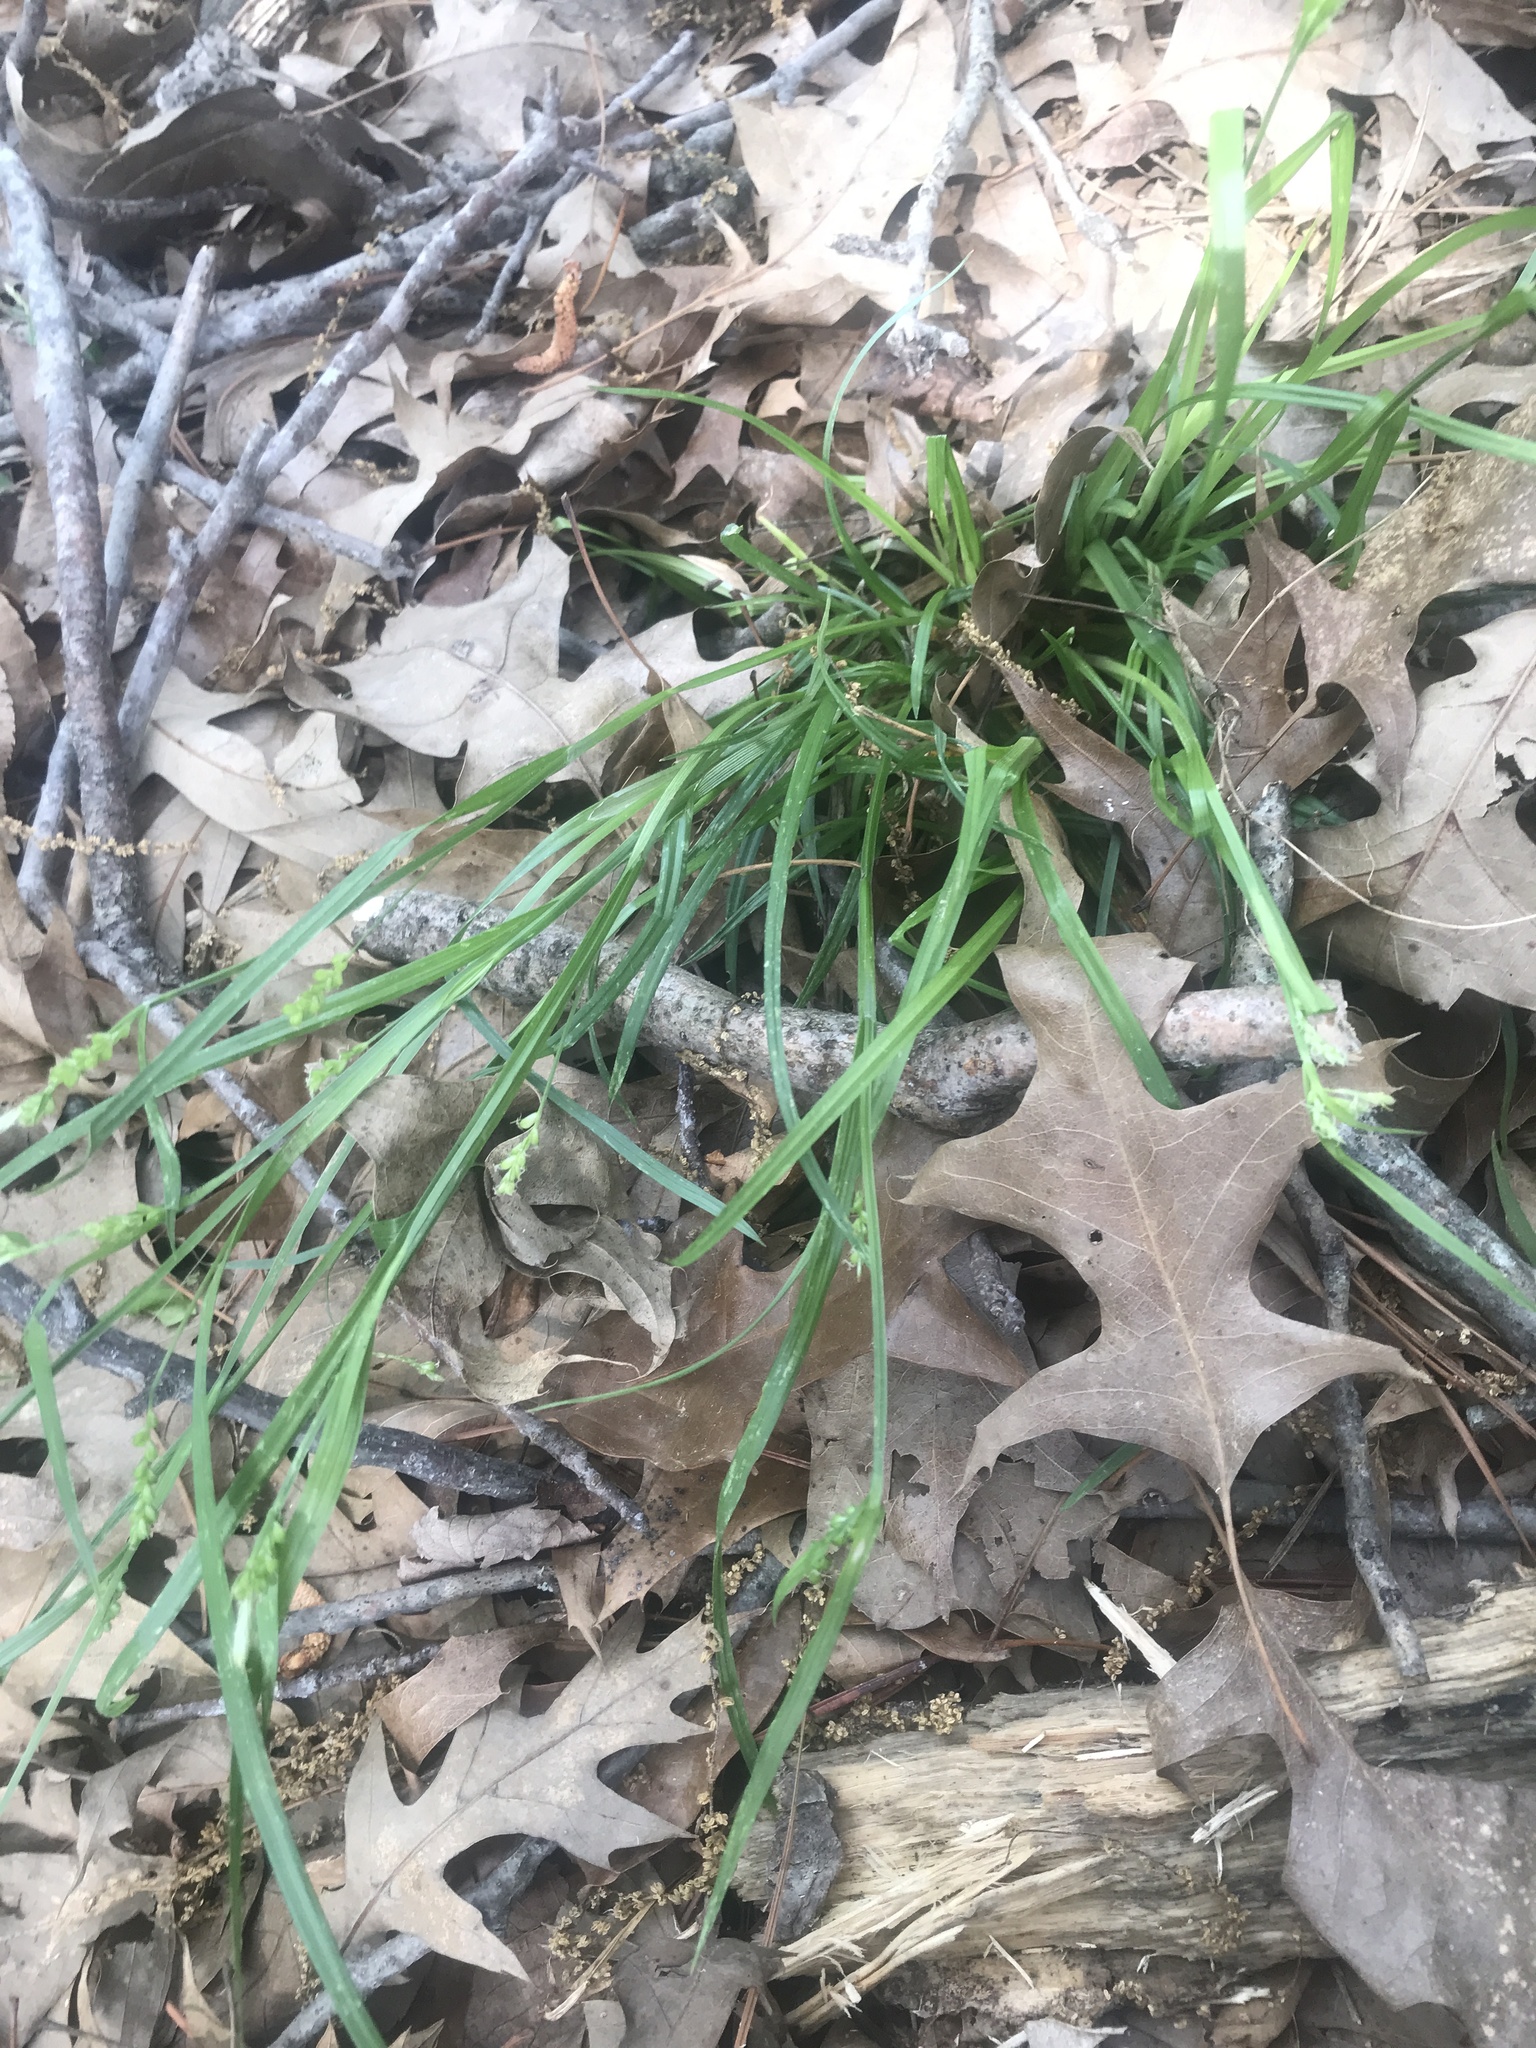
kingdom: Plantae
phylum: Tracheophyta
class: Liliopsida
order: Poales
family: Cyperaceae
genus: Carex
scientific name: Carex blanda
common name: Bland sedge
